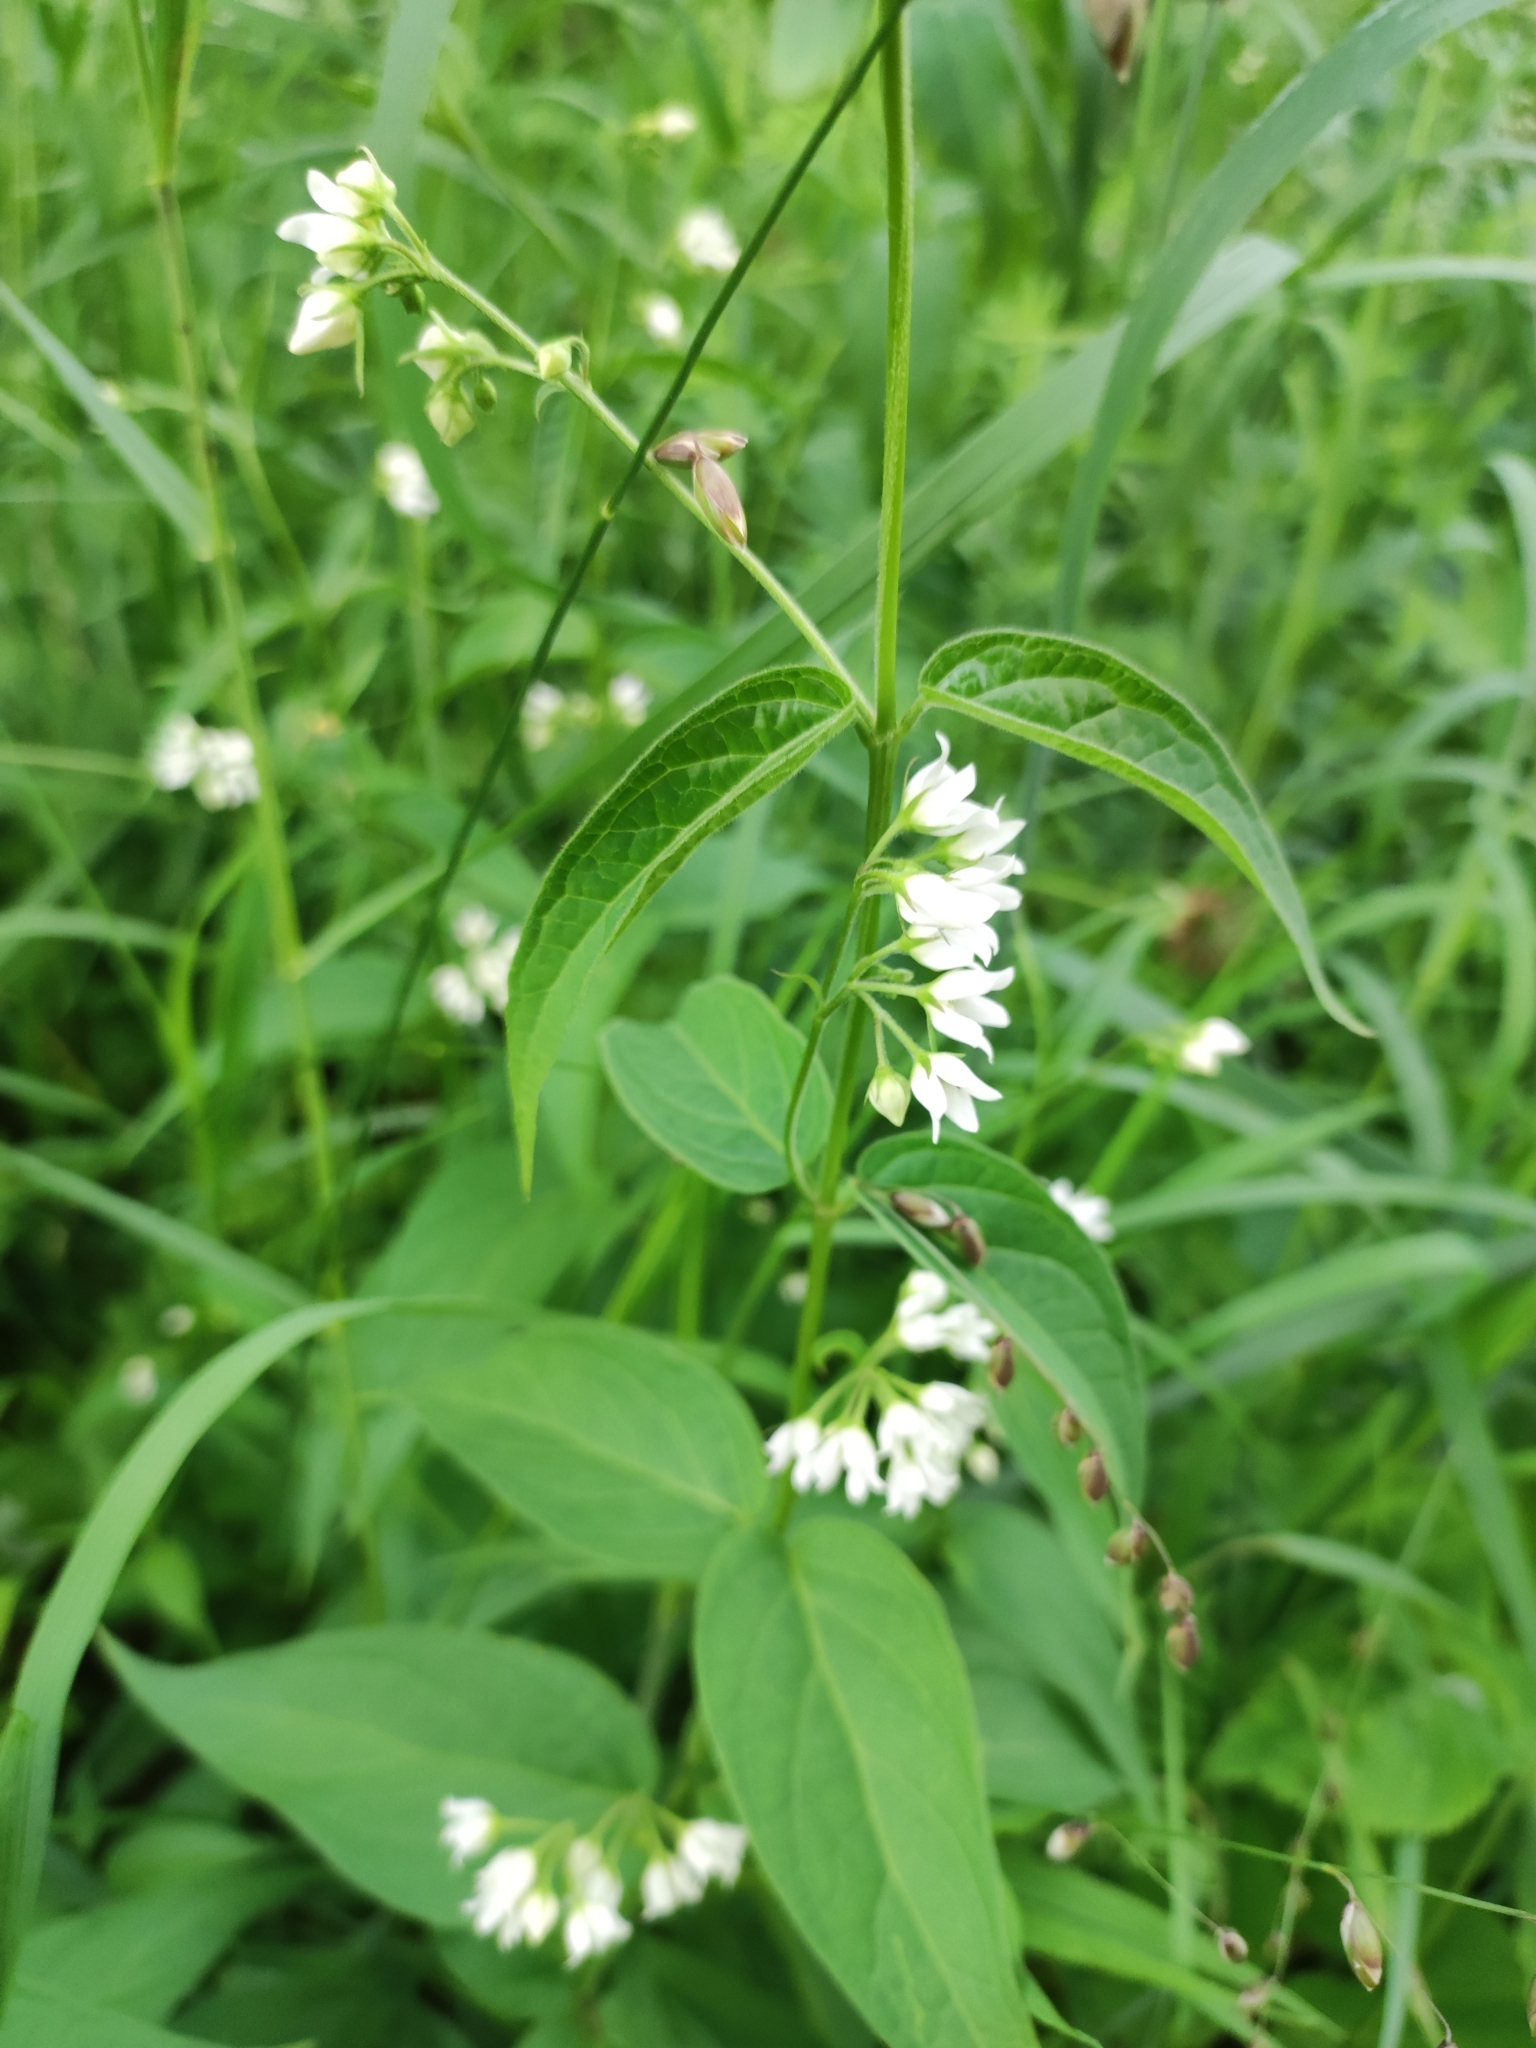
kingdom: Plantae
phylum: Tracheophyta
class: Magnoliopsida
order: Gentianales
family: Apocynaceae
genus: Vincetoxicum
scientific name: Vincetoxicum hirundinaria
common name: White swallowwort
